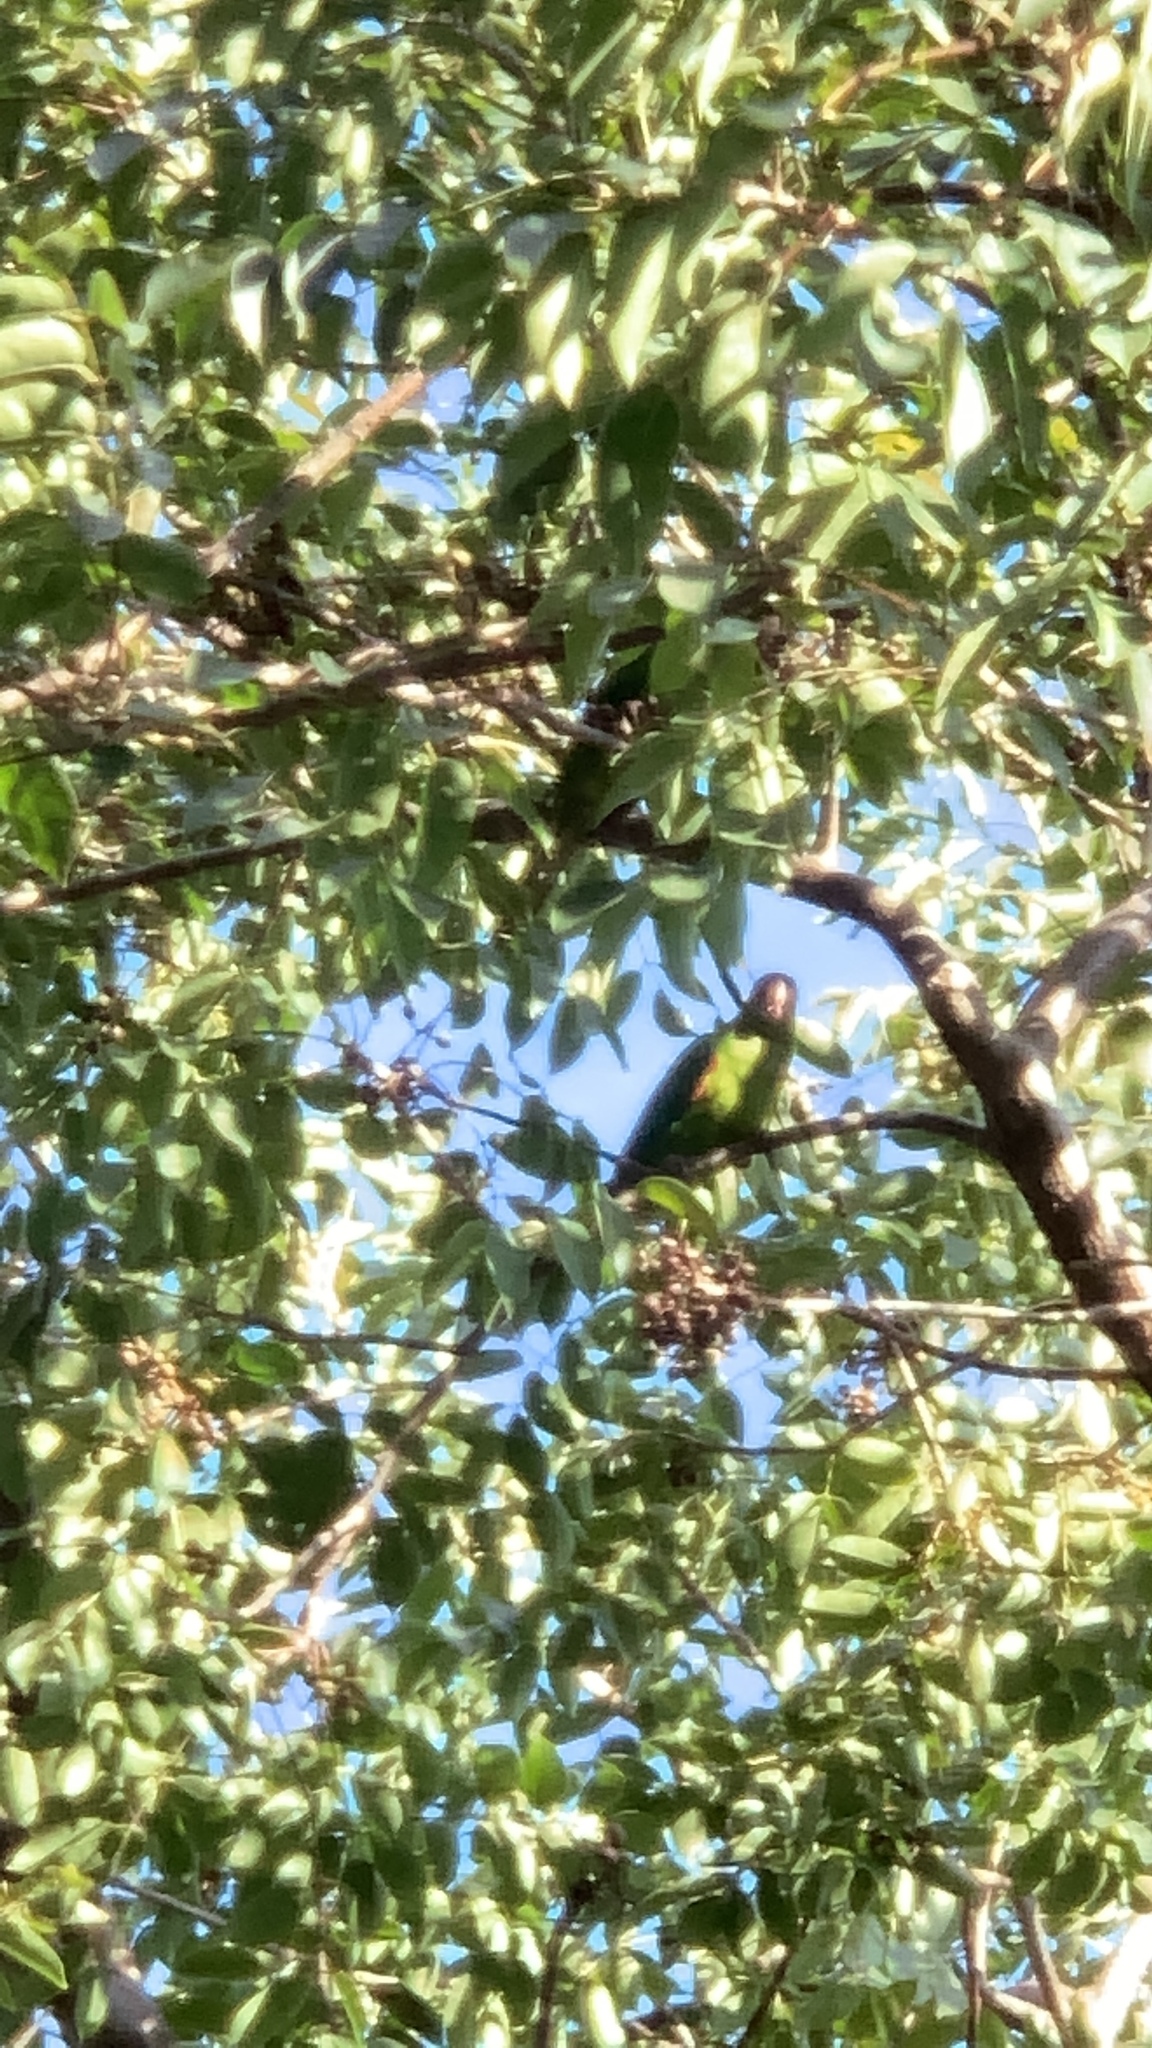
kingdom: Animalia
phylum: Chordata
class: Aves
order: Psittaciformes
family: Psittacidae
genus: Aratinga
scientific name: Aratinga leucophthalma
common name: White-eyed parakeet
